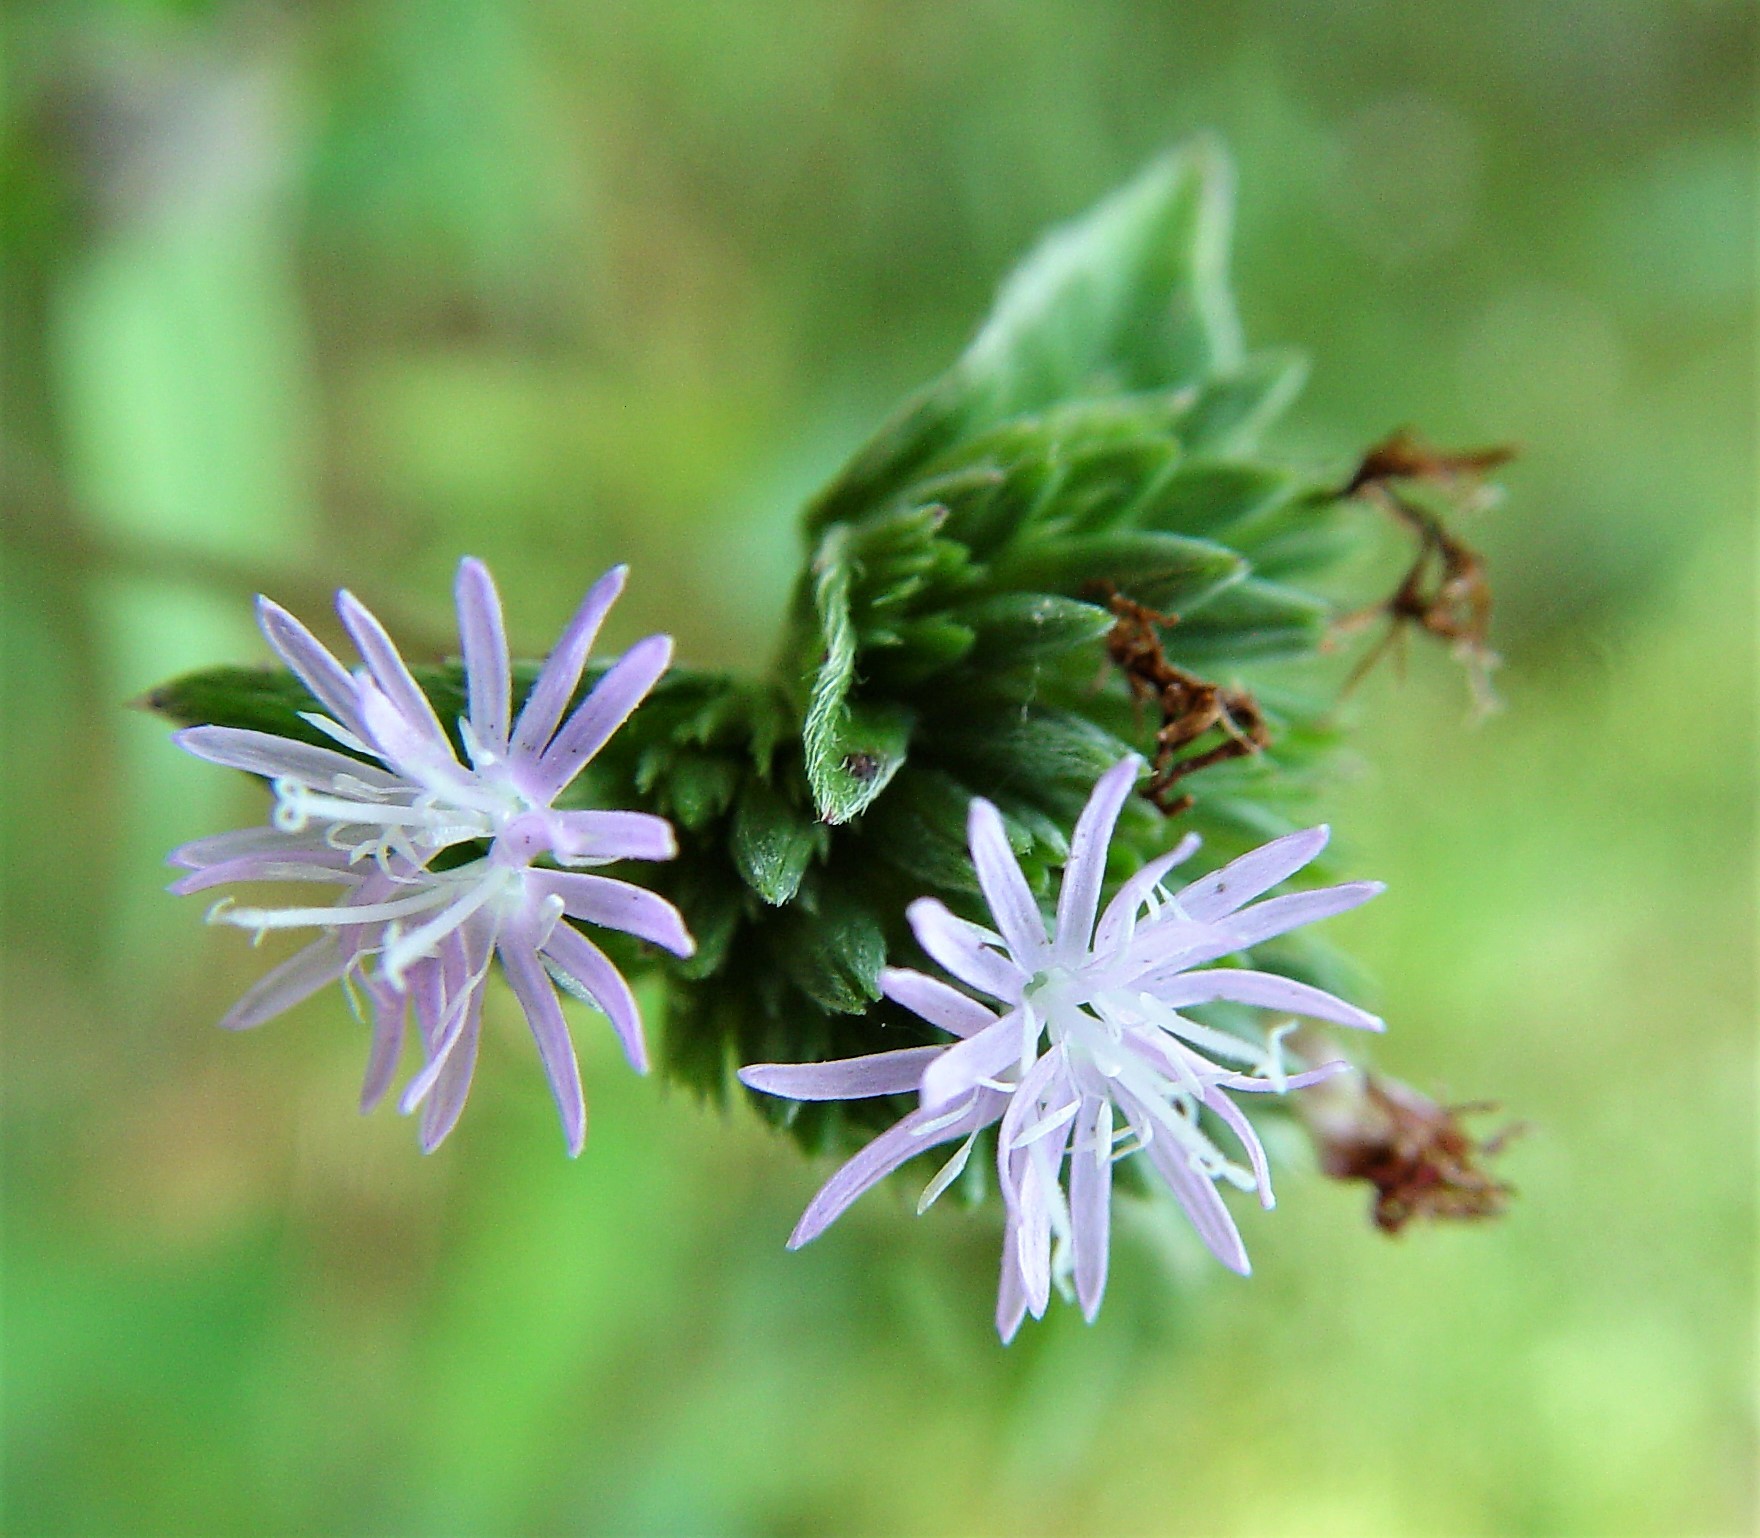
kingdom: Plantae
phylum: Tracheophyta
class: Magnoliopsida
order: Asterales
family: Asteraceae
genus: Elephantopus
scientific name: Elephantopus elatus
